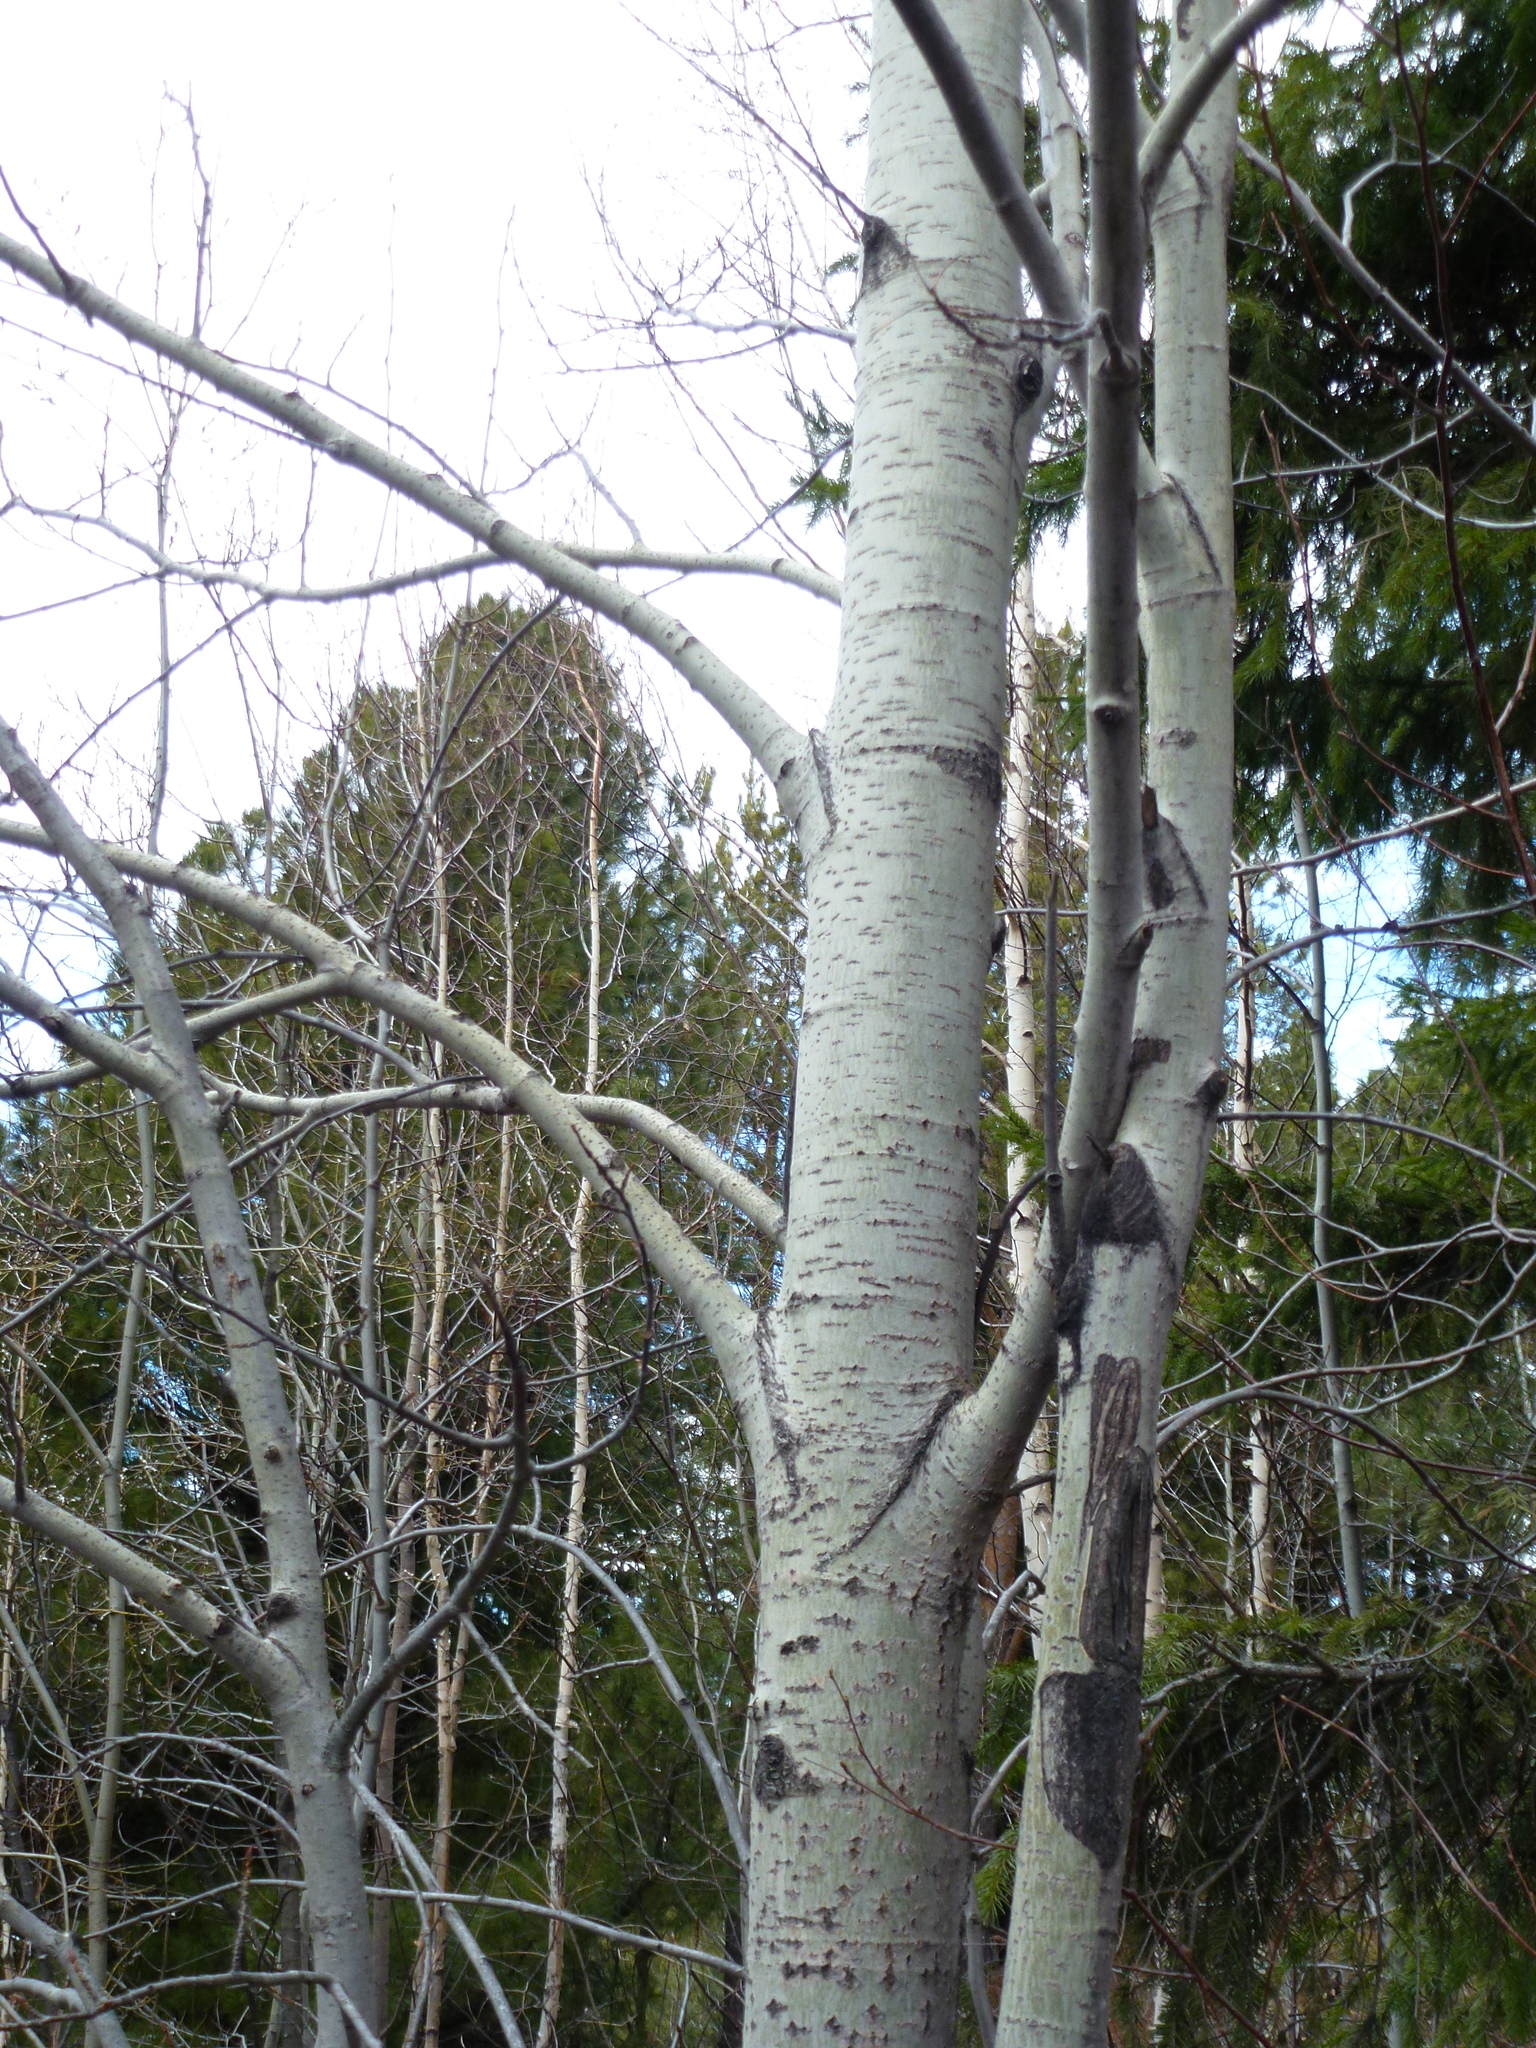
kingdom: Plantae
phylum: Tracheophyta
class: Magnoliopsida
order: Malpighiales
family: Salicaceae
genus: Populus
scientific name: Populus tremula
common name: European aspen
